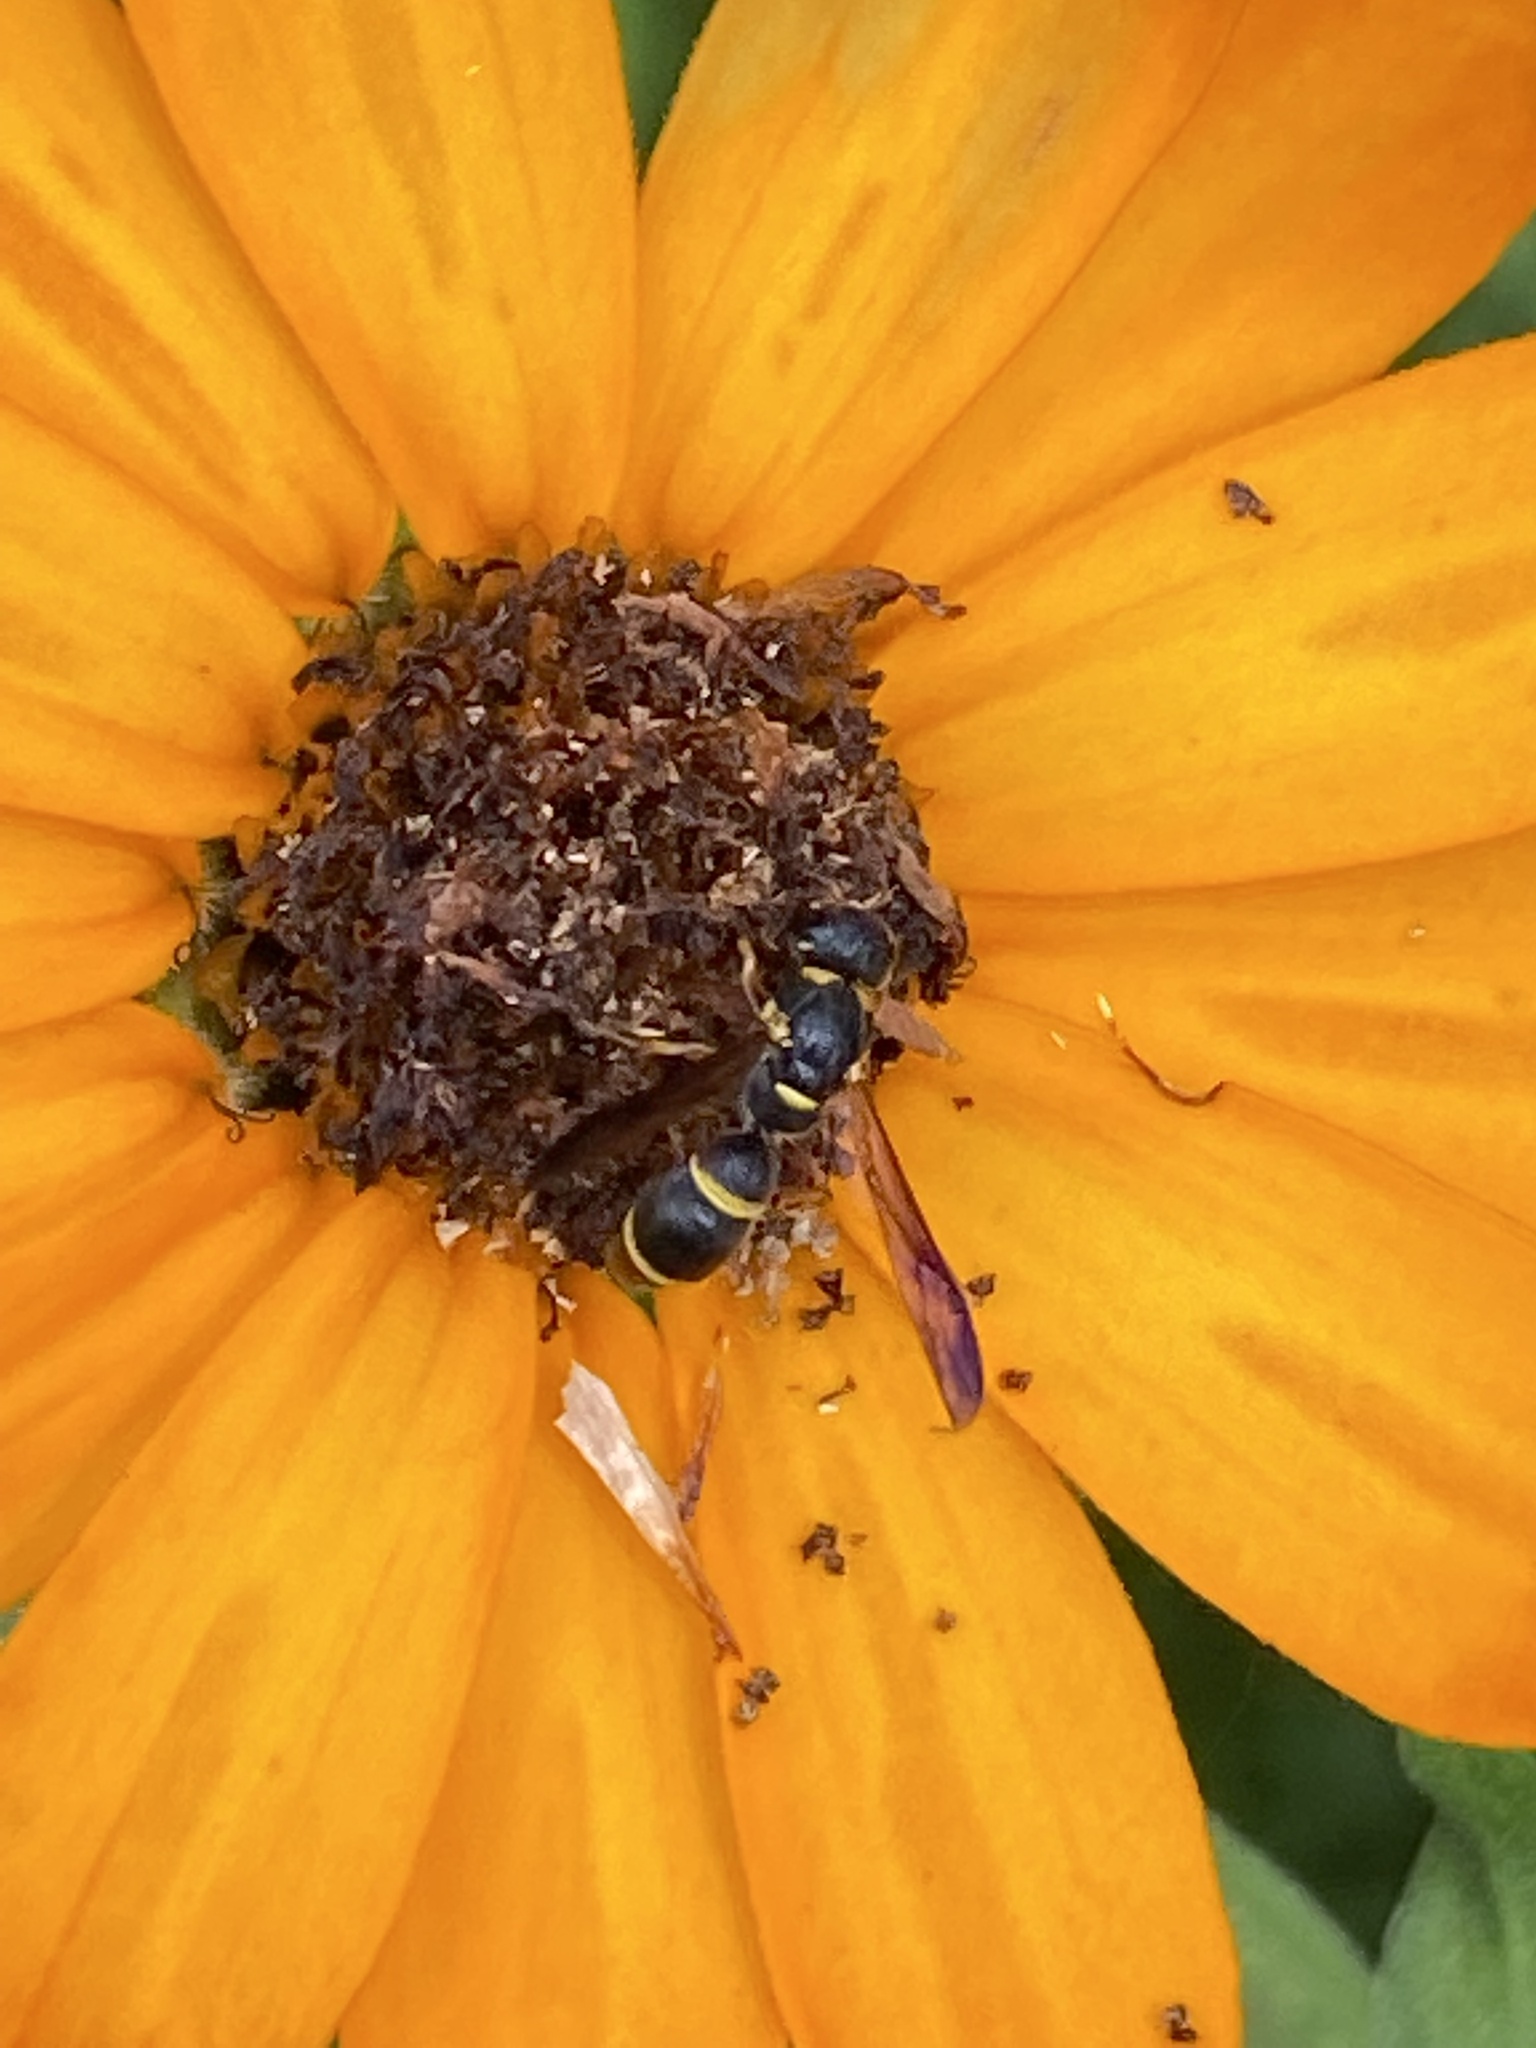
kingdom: Animalia
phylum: Arthropoda
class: Insecta
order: Hymenoptera
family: Eumenidae
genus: Parancistrocerus
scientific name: Parancistrocerus perennis
